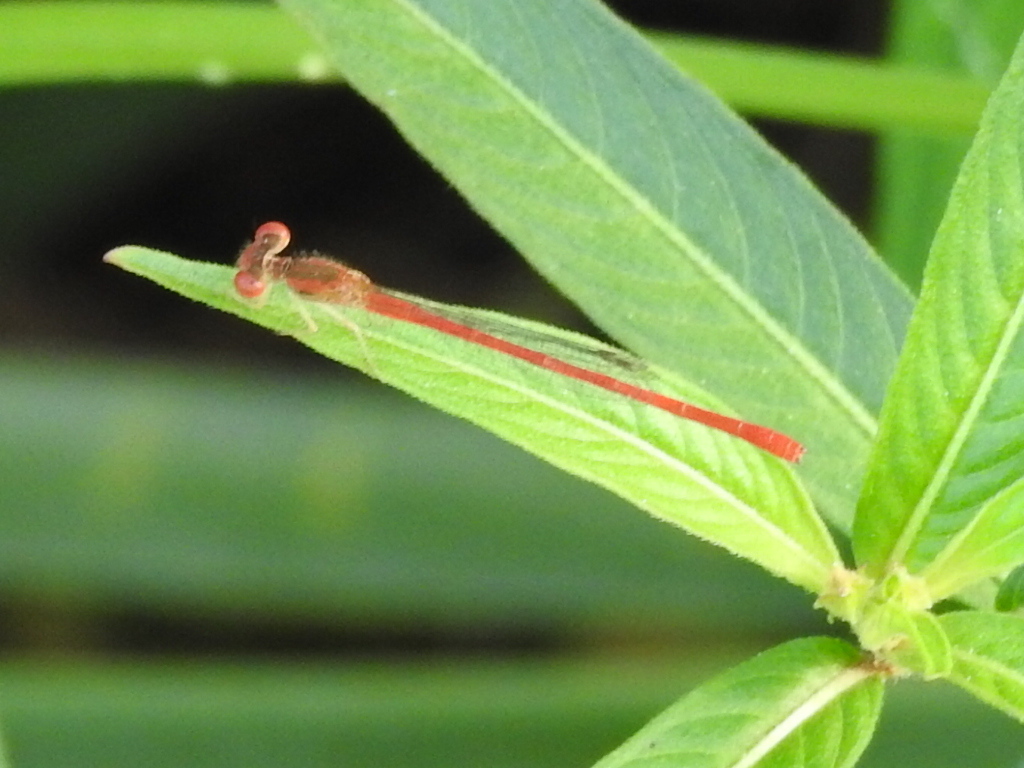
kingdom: Animalia
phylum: Arthropoda
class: Insecta
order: Odonata
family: Coenagrionidae
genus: Telebasis
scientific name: Telebasis salva
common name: Desert firetail
